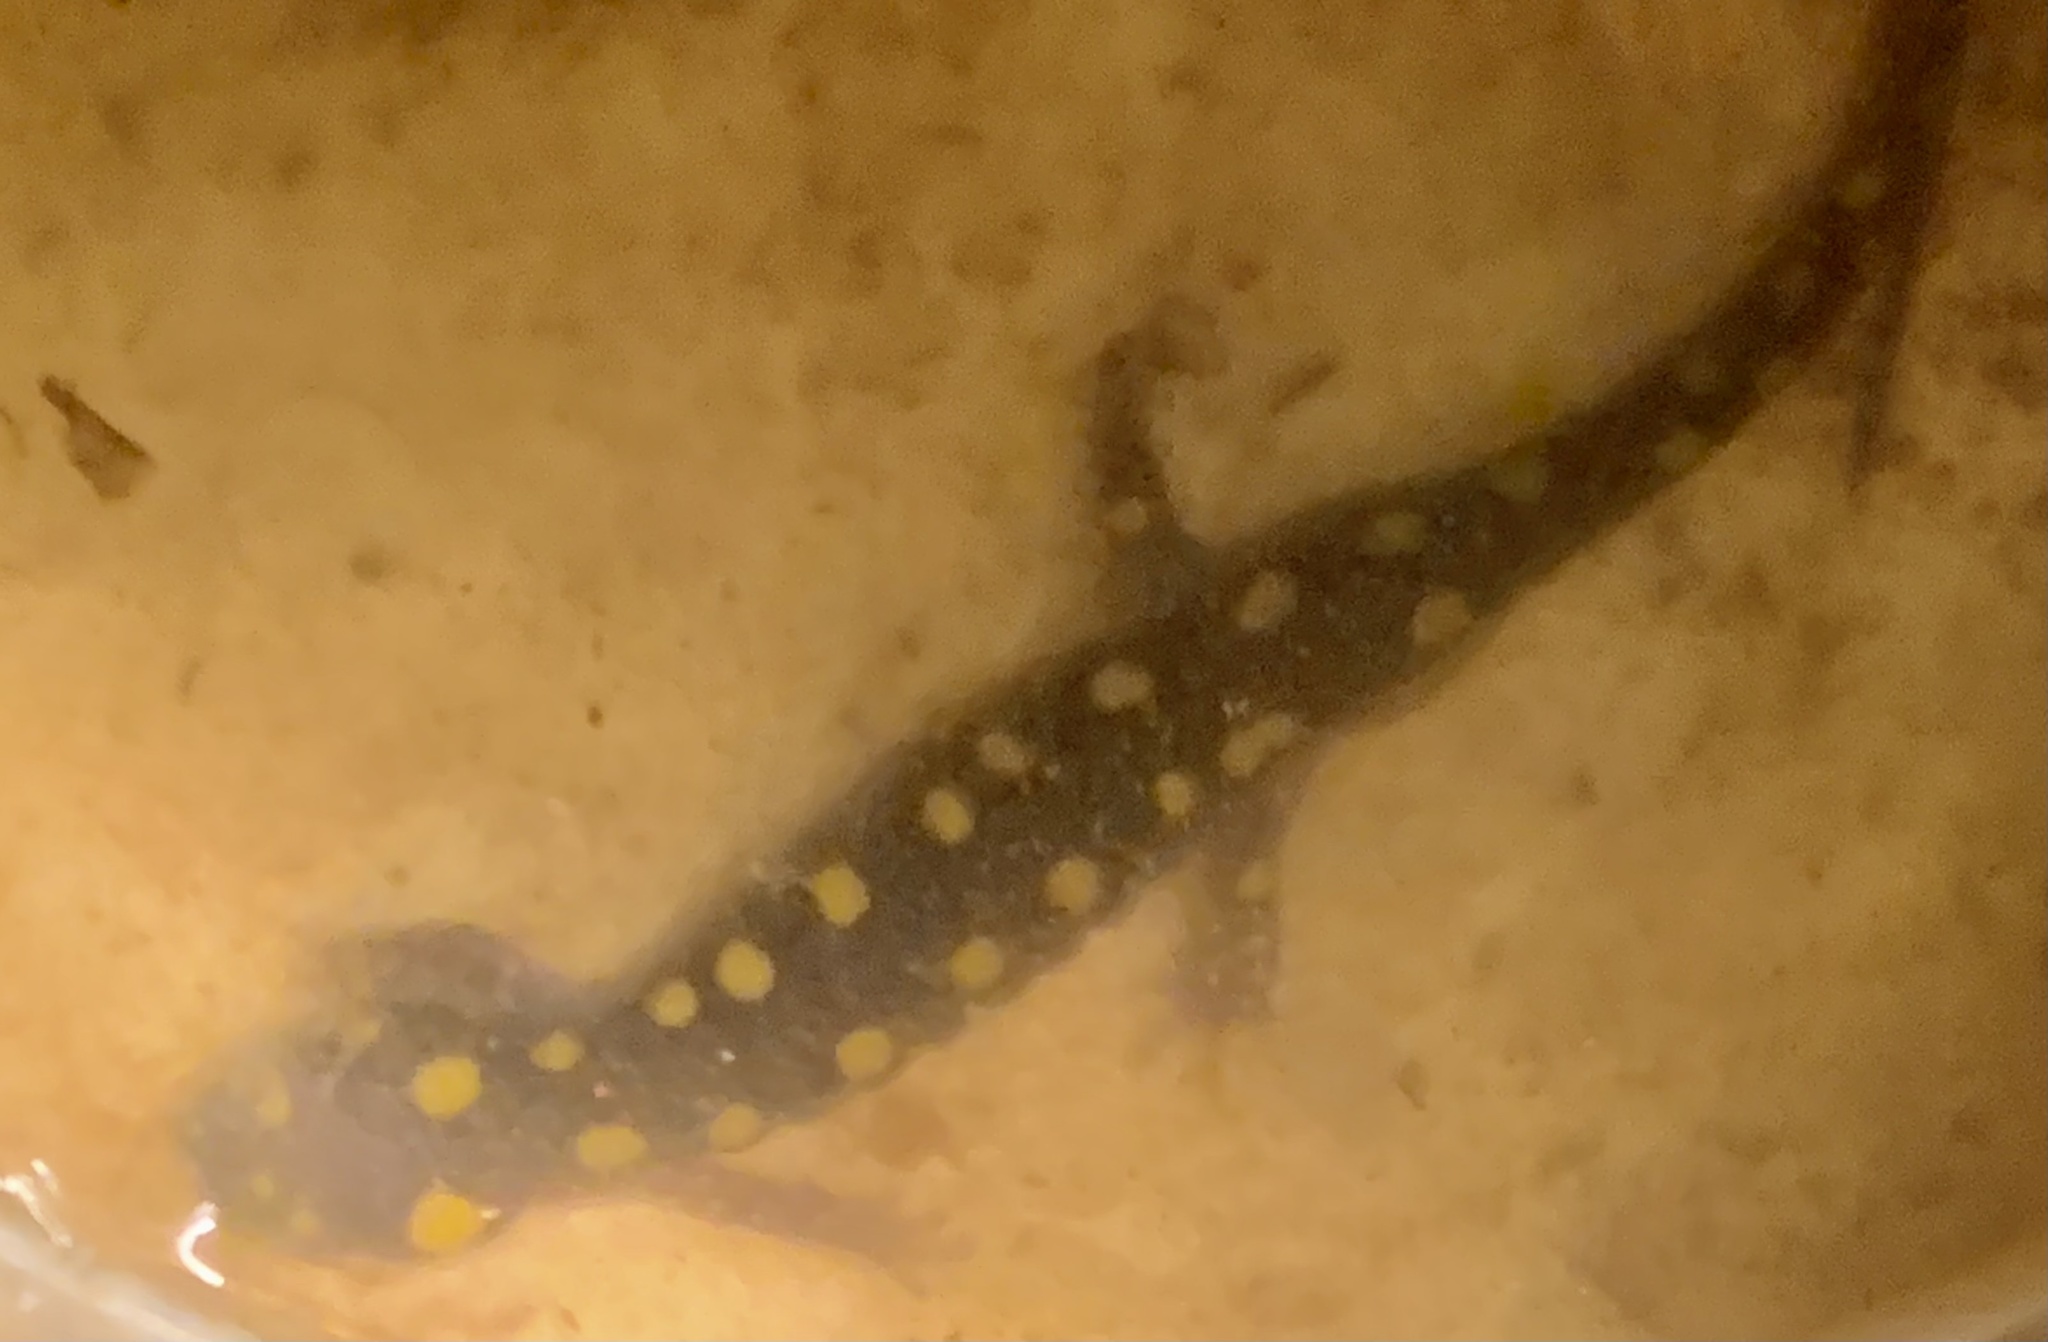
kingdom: Animalia
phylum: Chordata
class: Amphibia
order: Caudata
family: Ambystomatidae
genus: Ambystoma
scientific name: Ambystoma maculatum
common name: Spotted salamander
